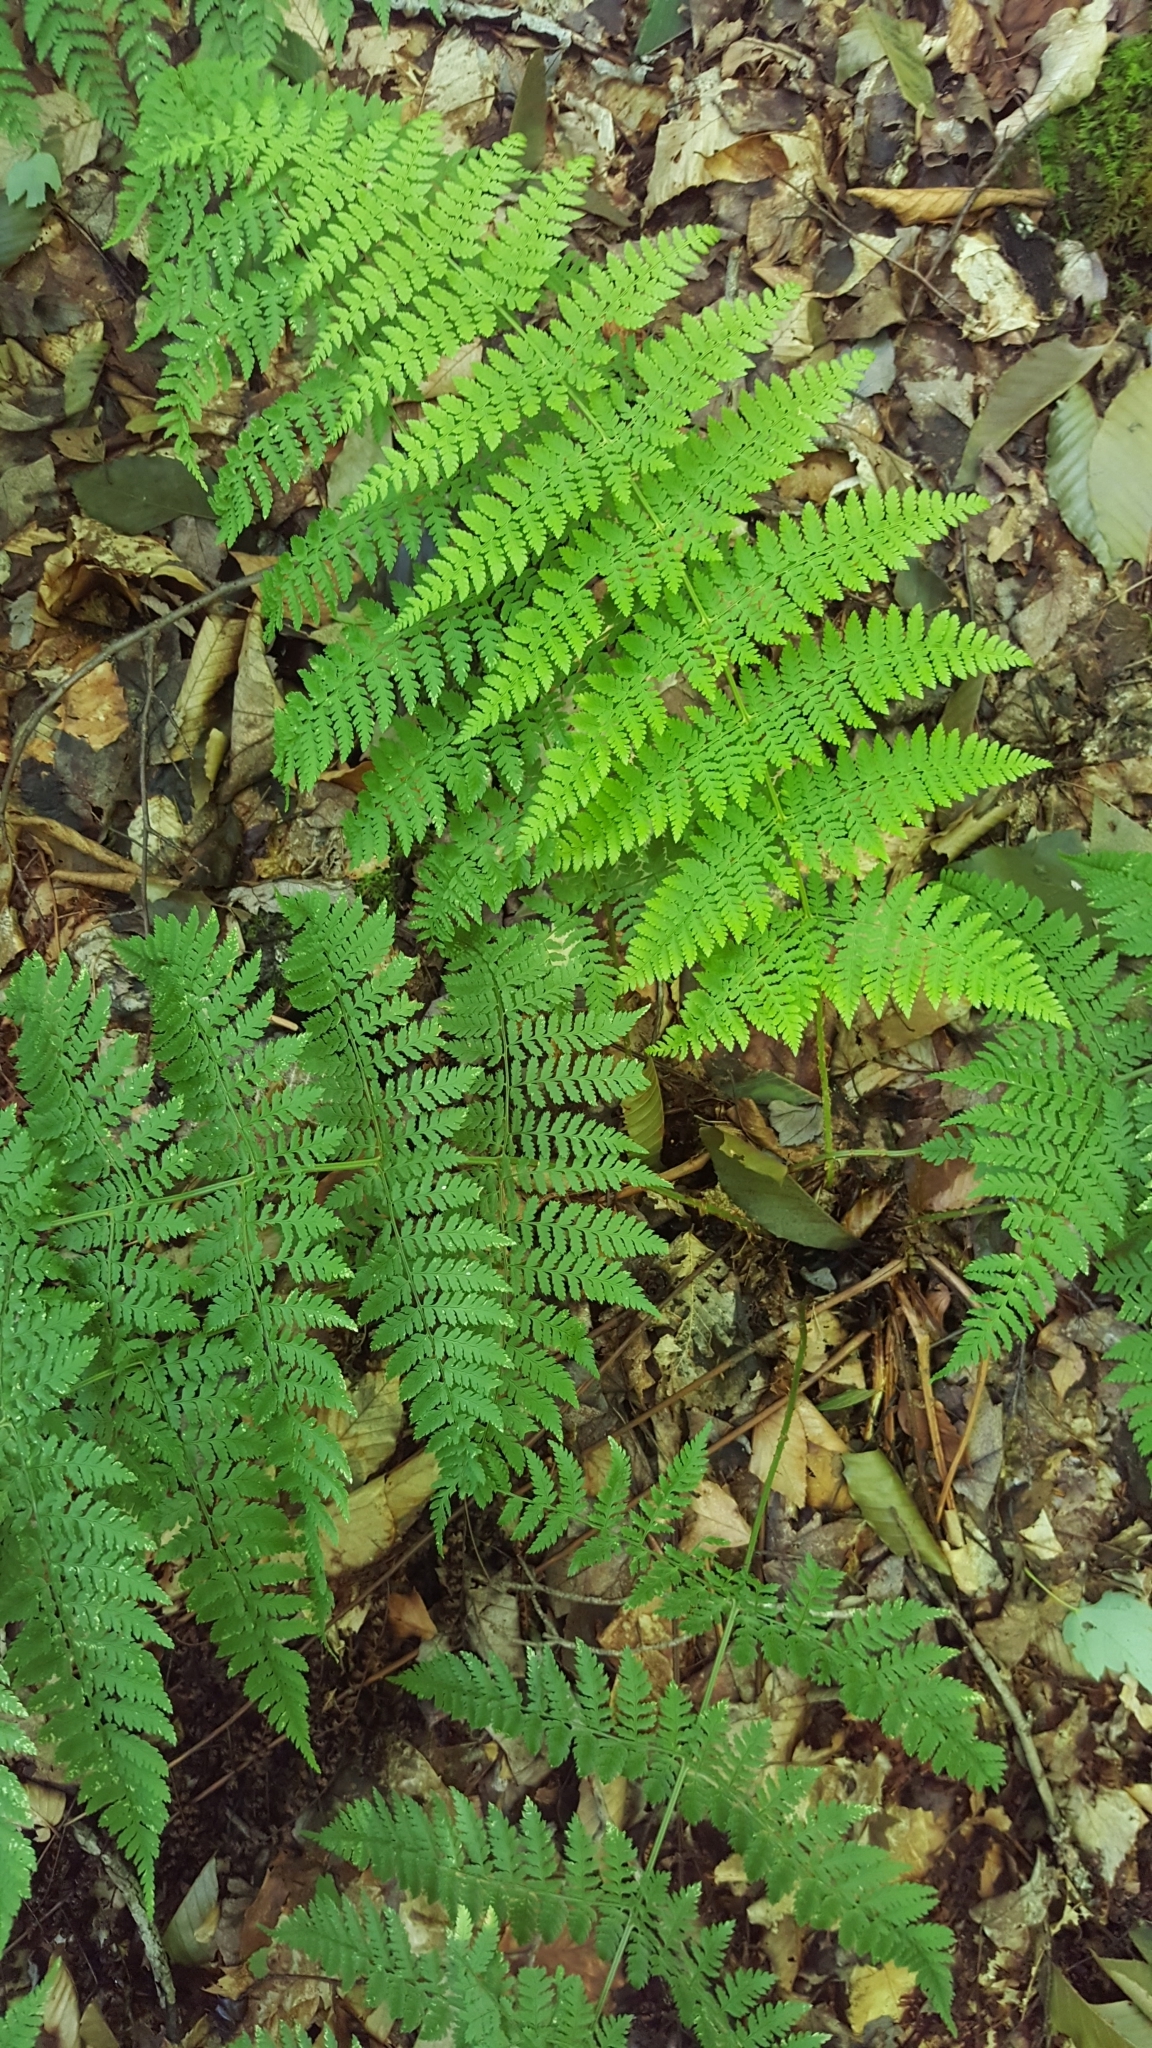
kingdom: Plantae
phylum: Tracheophyta
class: Polypodiopsida
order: Polypodiales
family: Dryopteridaceae
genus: Dryopteris
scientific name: Dryopteris intermedia
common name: Evergreen wood fern
